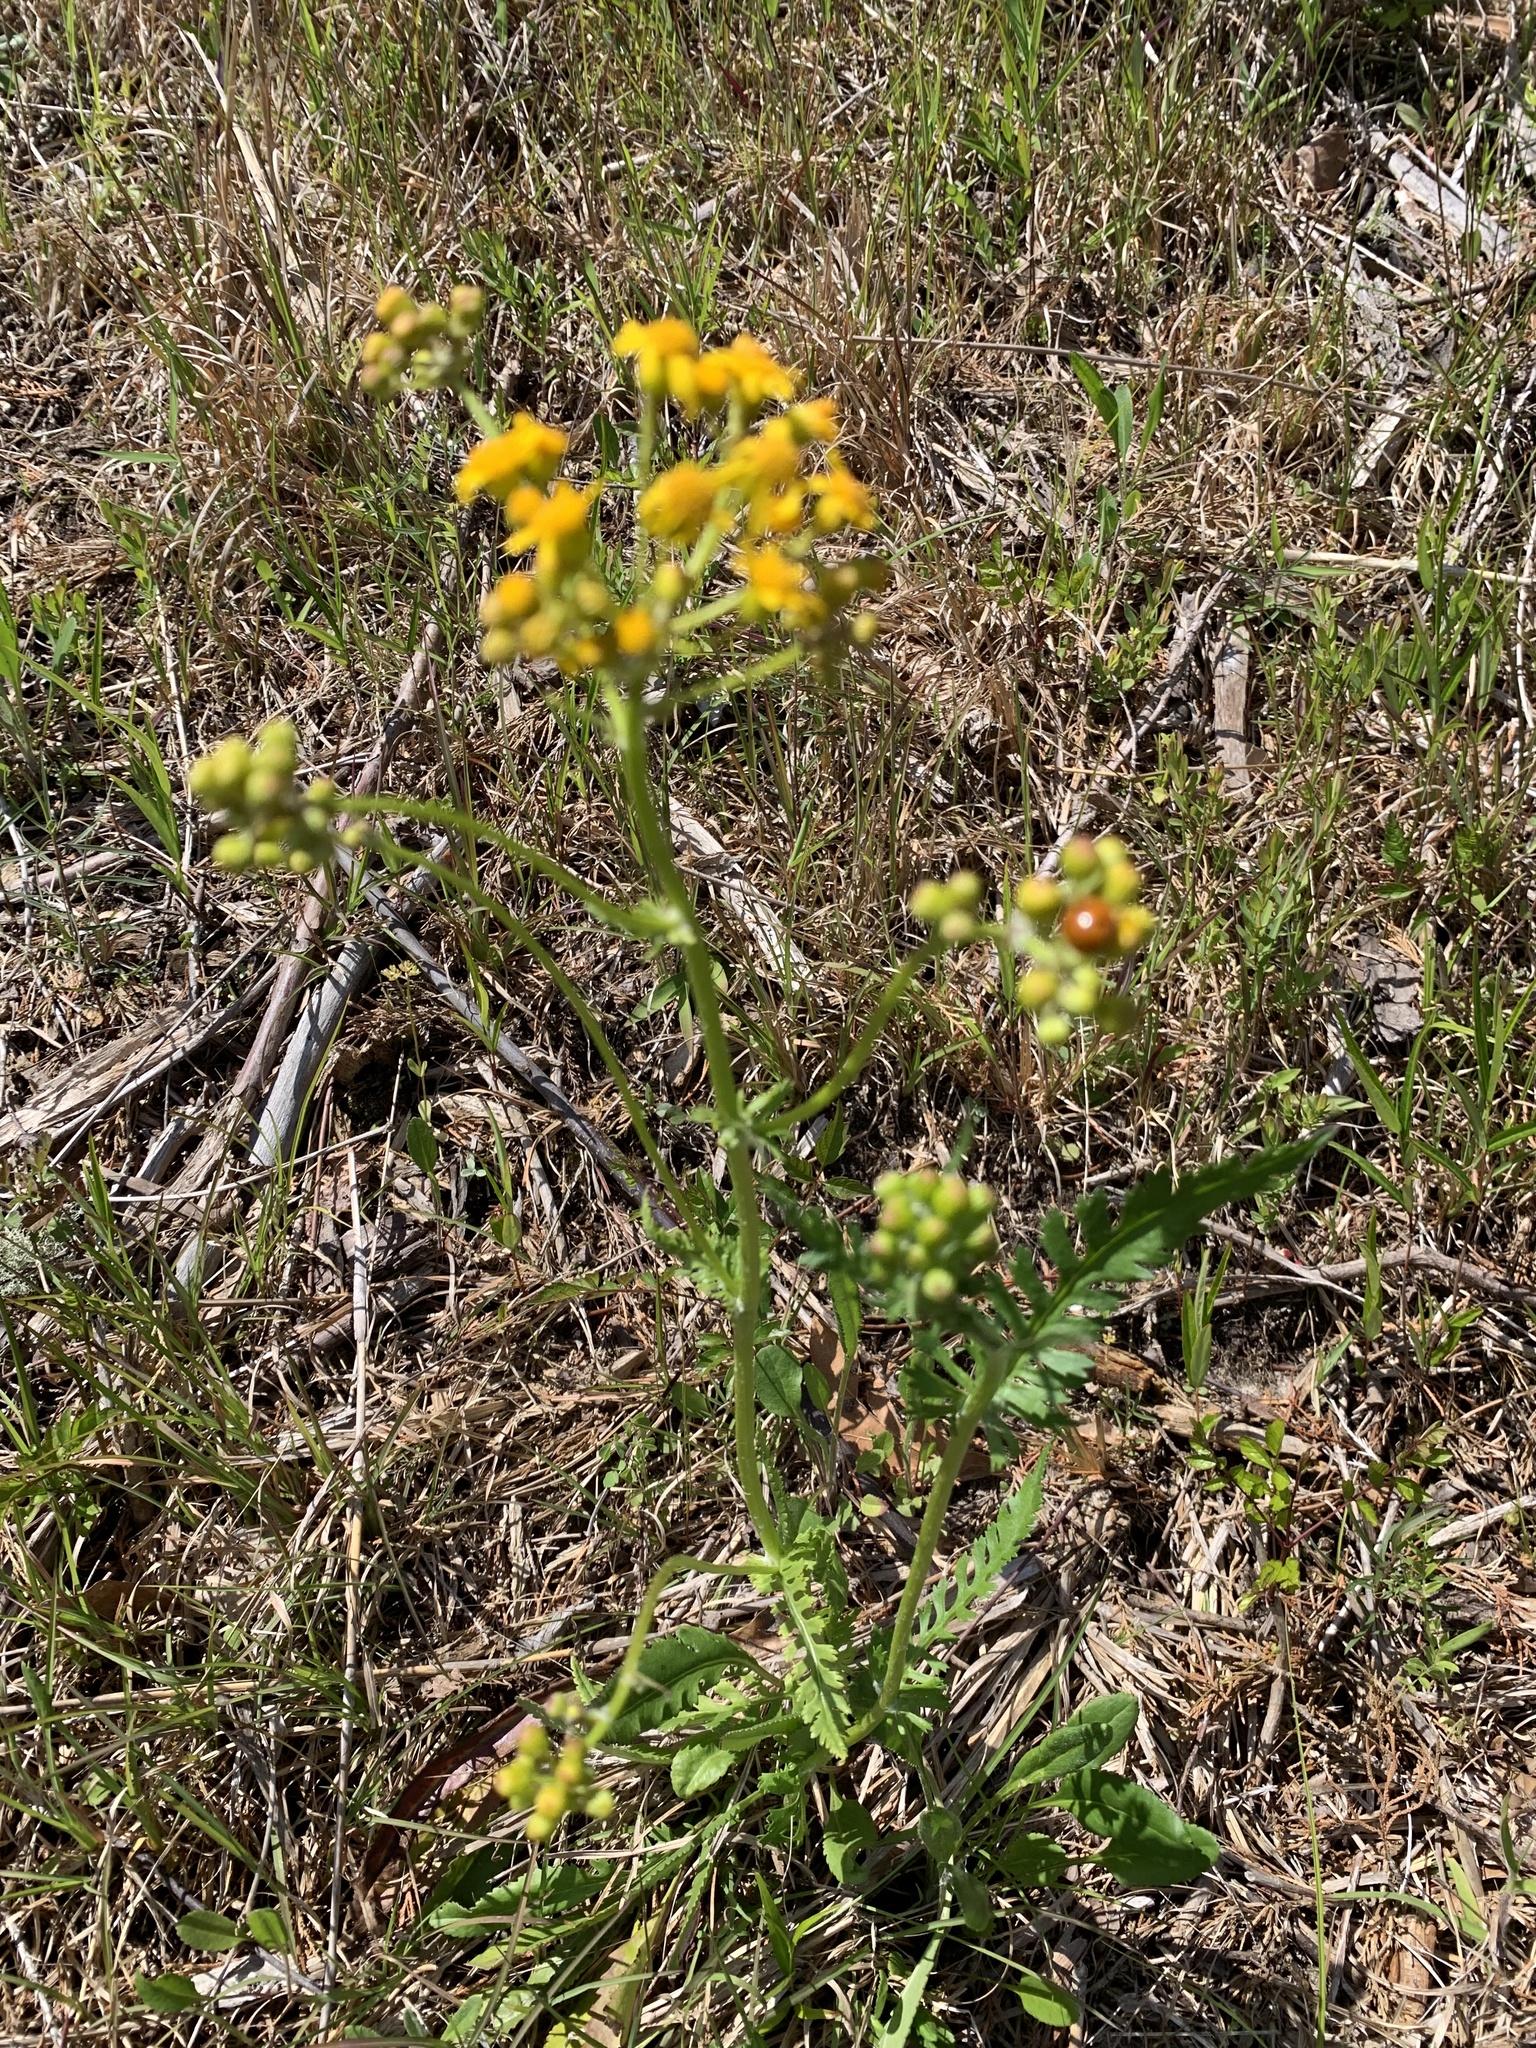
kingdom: Plantae
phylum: Tracheophyta
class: Magnoliopsida
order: Asterales
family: Asteraceae
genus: Packera
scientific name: Packera anonyma
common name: Small ragwort
